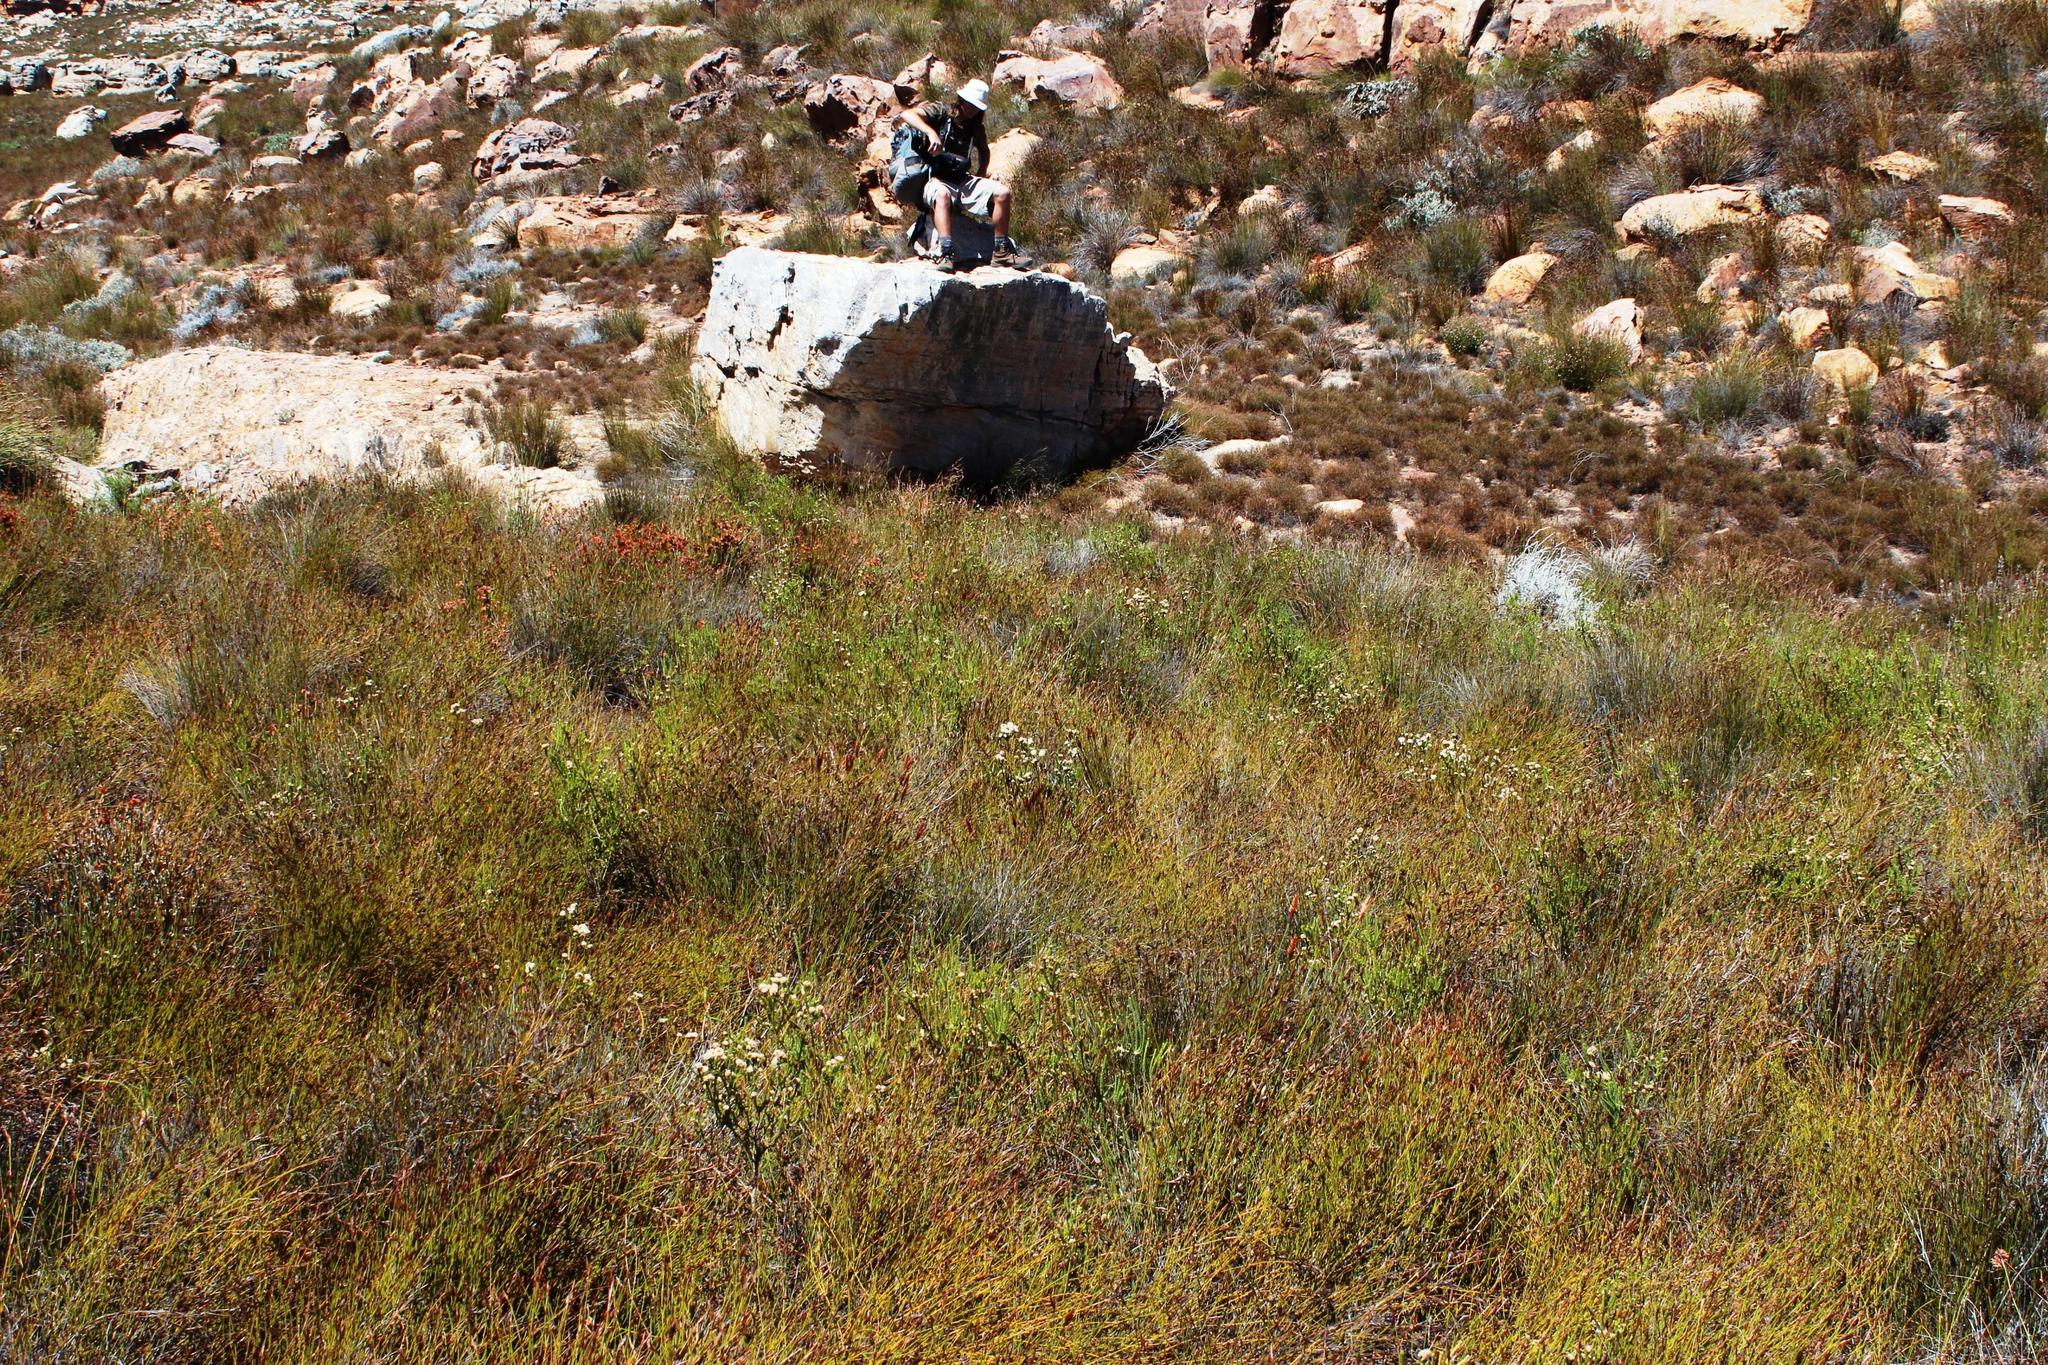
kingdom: Plantae
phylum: Tracheophyta
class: Magnoliopsida
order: Sapindales
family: Rutaceae
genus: Agathosma
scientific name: Agathosma stilbeoides
